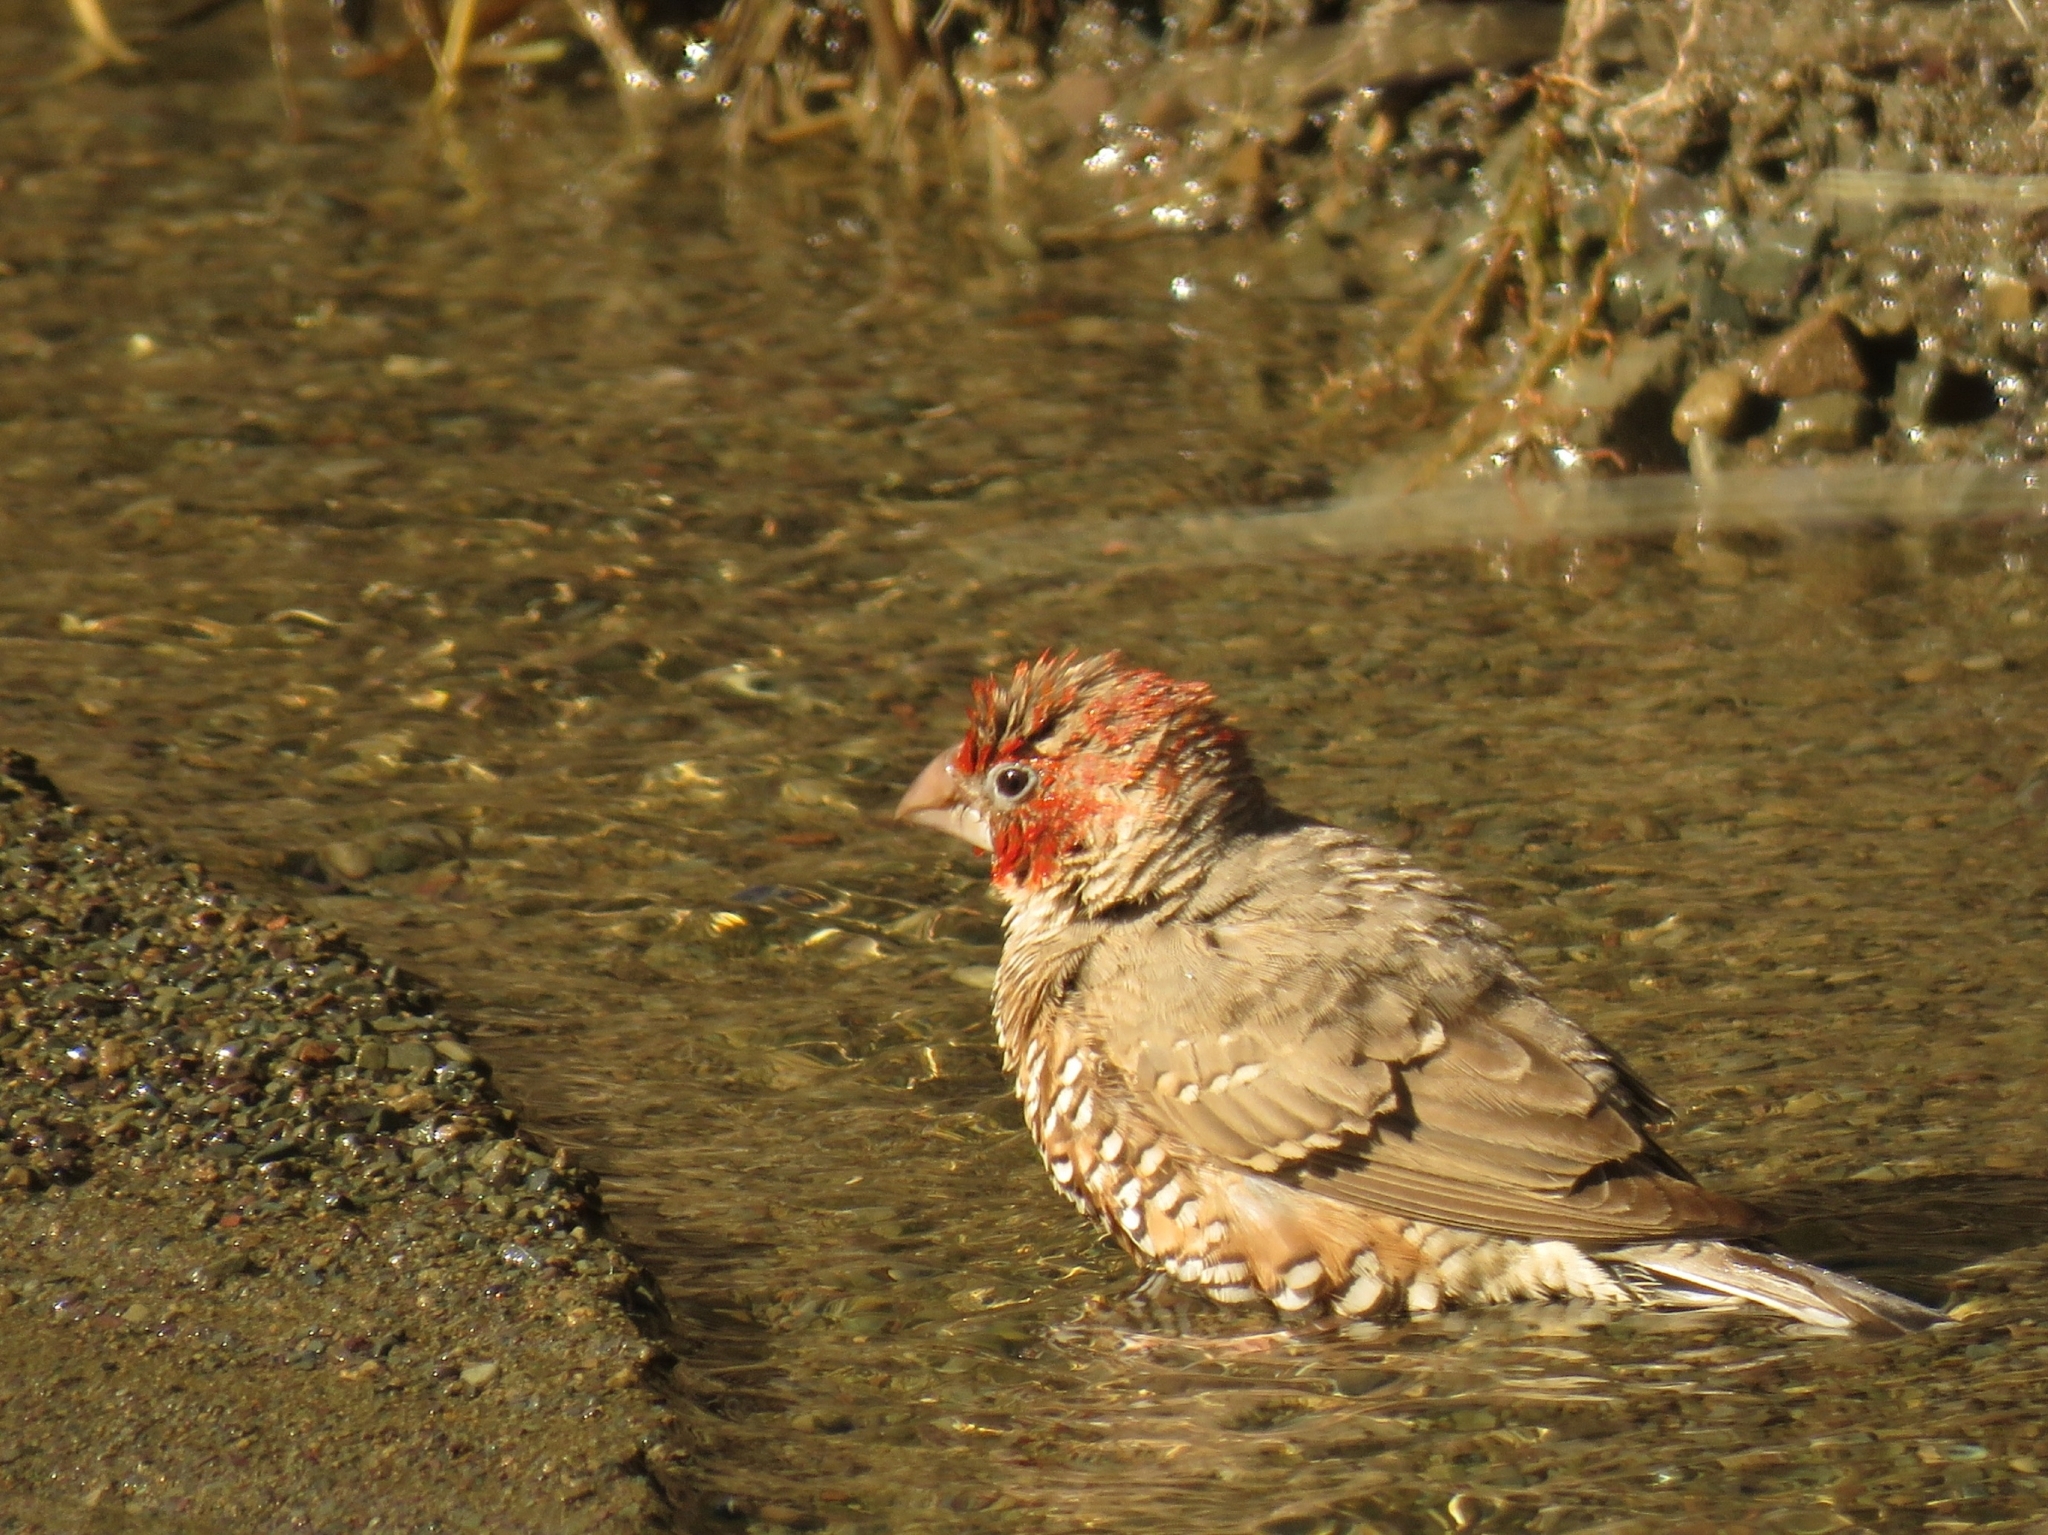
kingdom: Animalia
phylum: Chordata
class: Aves
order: Passeriformes
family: Estrildidae
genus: Amadina
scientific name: Amadina erythrocephala
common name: Red-headed finch
